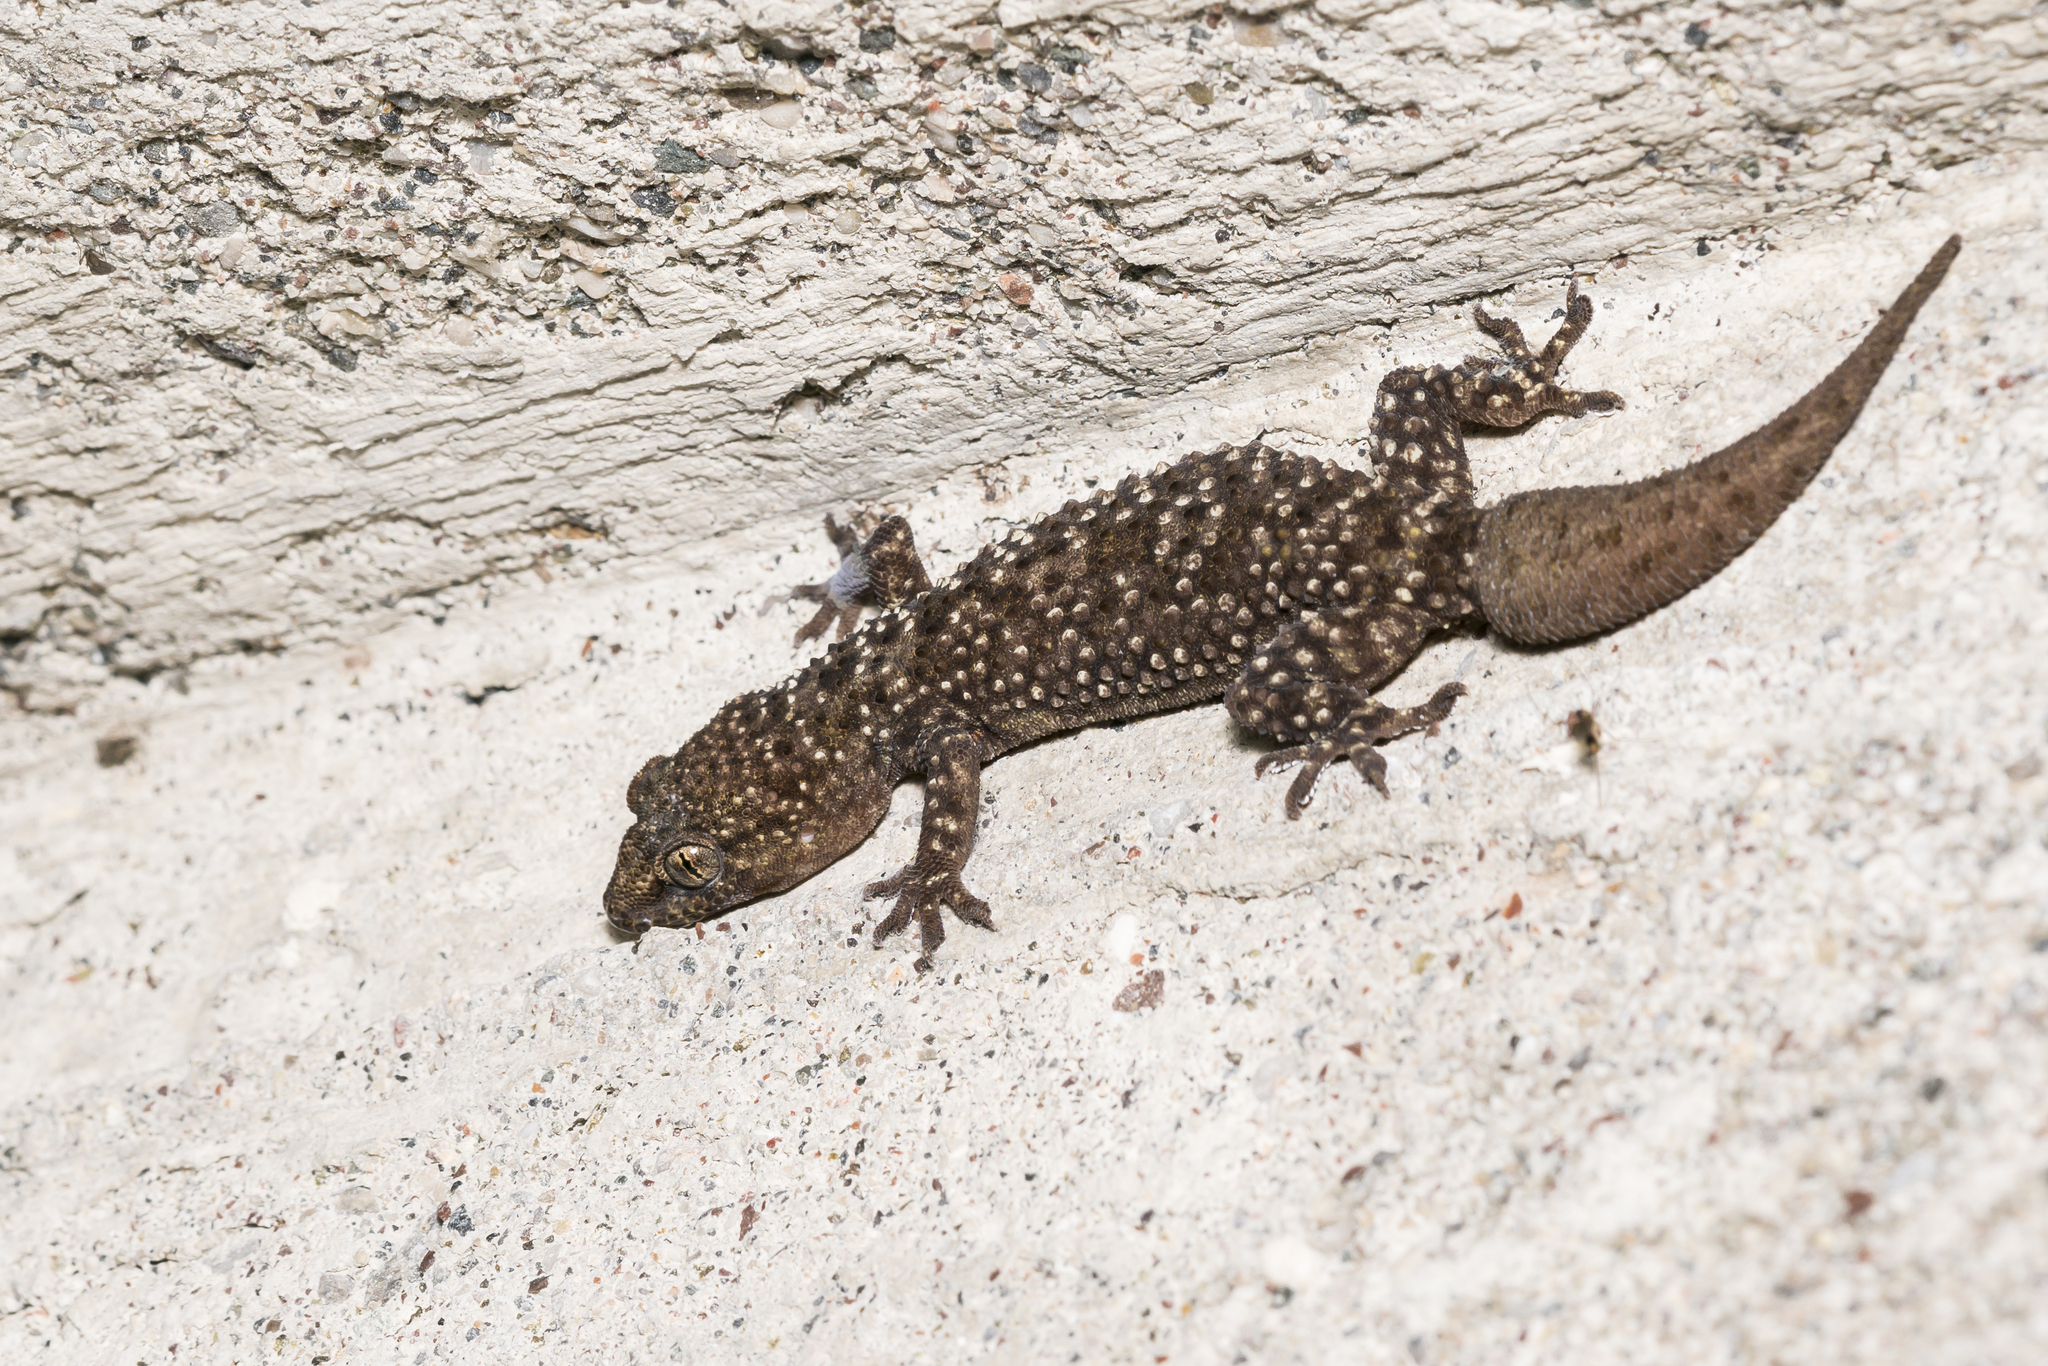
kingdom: Animalia
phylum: Chordata
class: Squamata
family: Gekkonidae
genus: Hemidactylus
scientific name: Hemidactylus turcicus
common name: Turkish gecko
